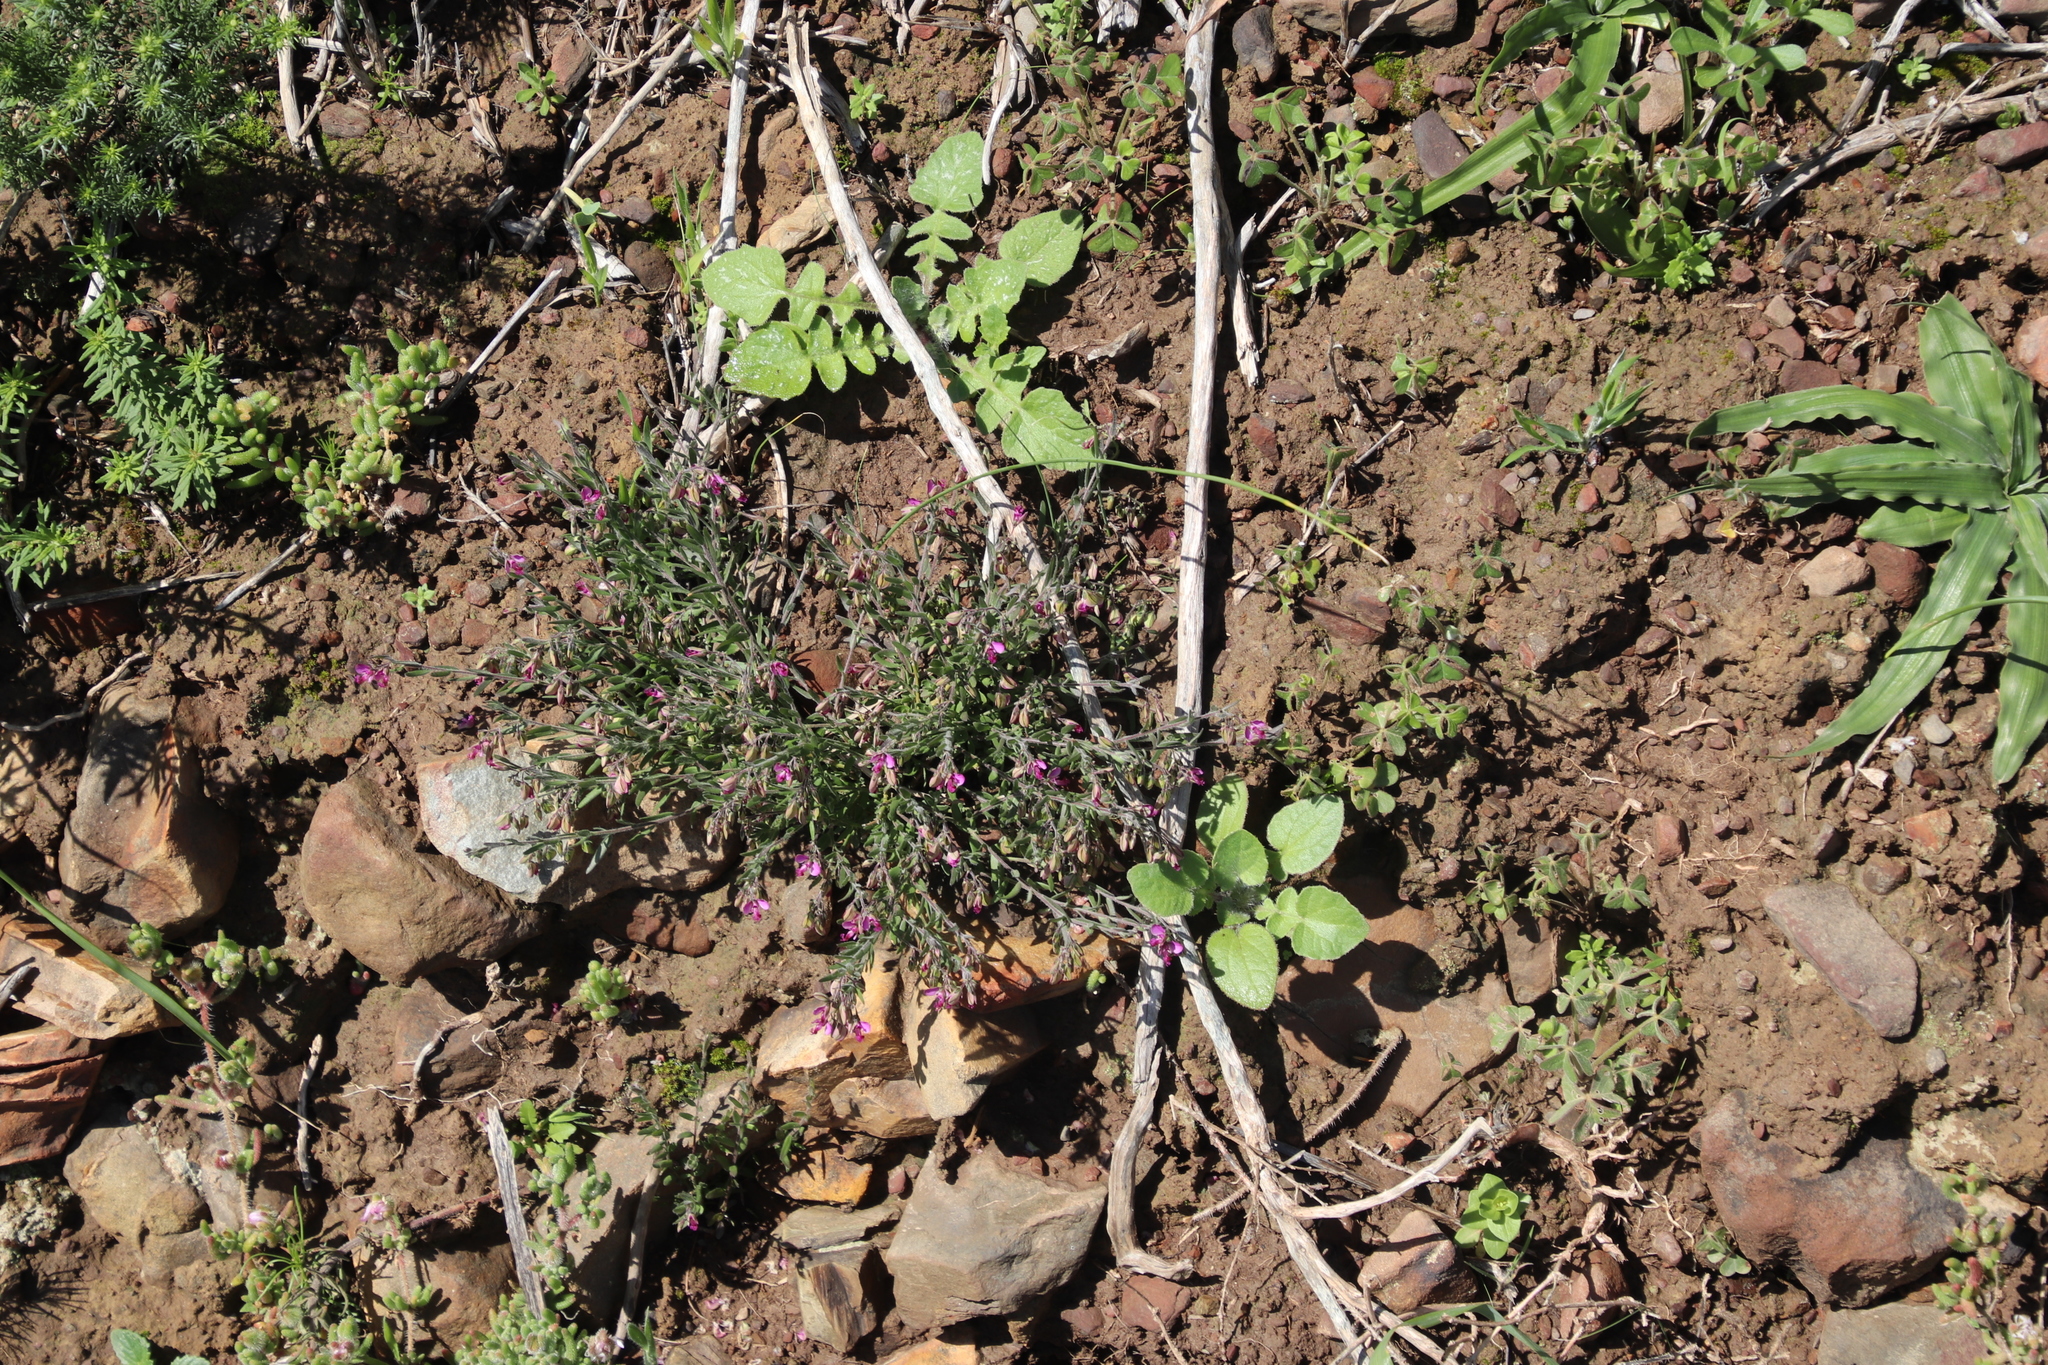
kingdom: Plantae
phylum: Tracheophyta
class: Magnoliopsida
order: Fabales
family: Polygalaceae
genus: Polygala
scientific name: Polygala scabra
